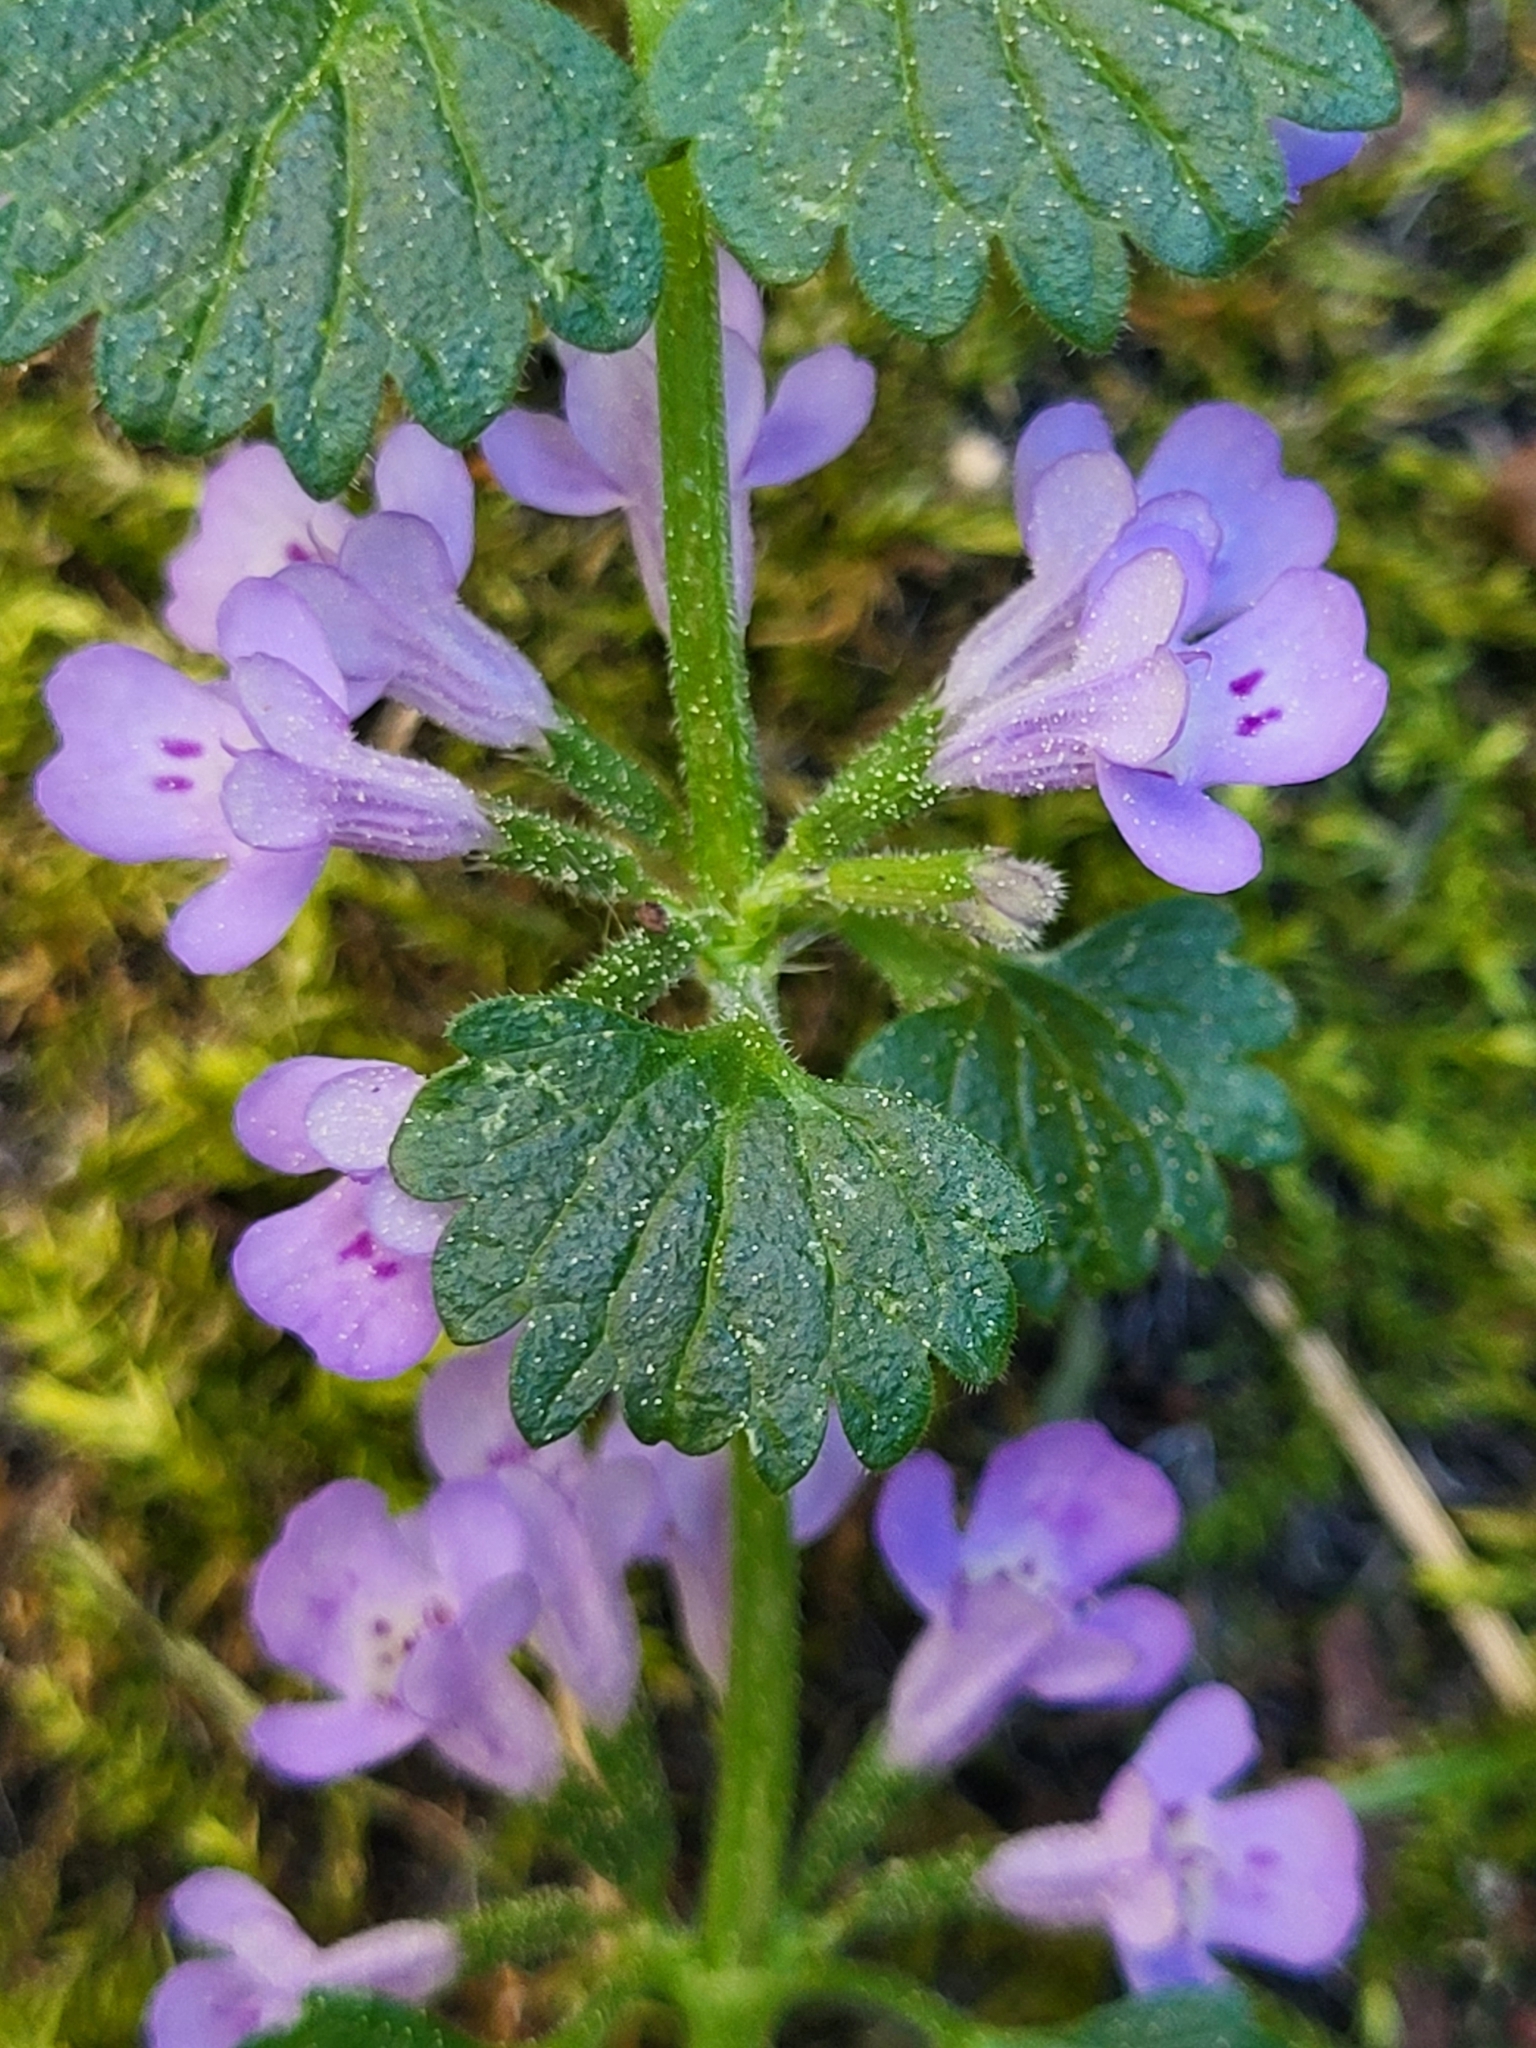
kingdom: Plantae
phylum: Tracheophyta
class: Magnoliopsida
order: Lamiales
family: Lamiaceae
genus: Glechoma
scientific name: Glechoma hederacea
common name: Ground ivy
